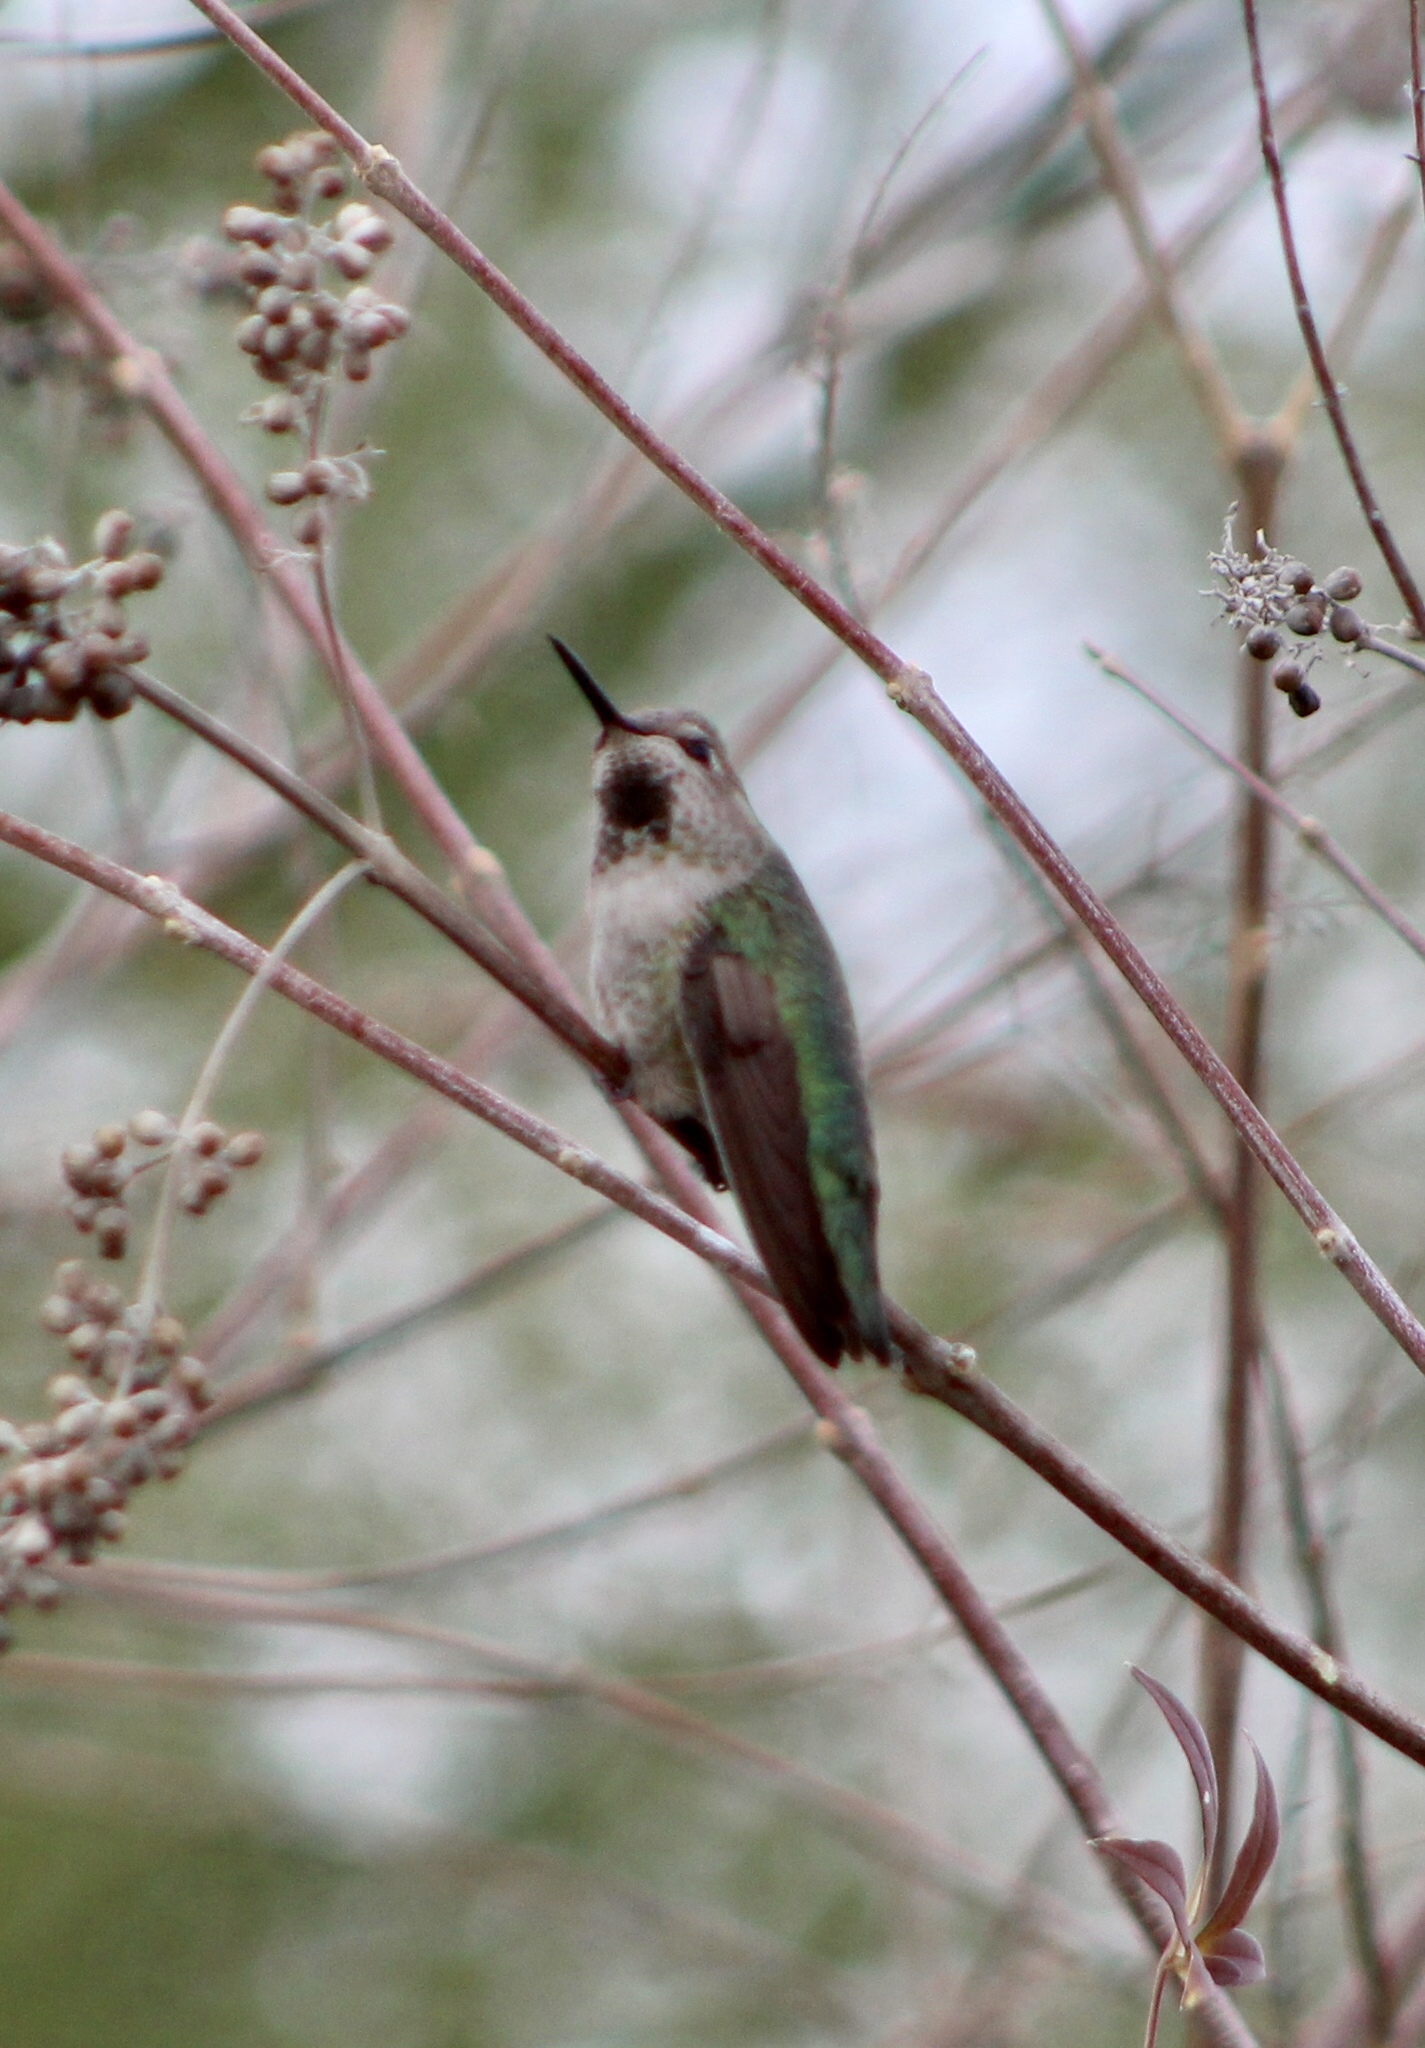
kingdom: Animalia
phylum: Chordata
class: Aves
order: Apodiformes
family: Trochilidae
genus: Calypte
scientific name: Calypte anna
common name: Anna's hummingbird
